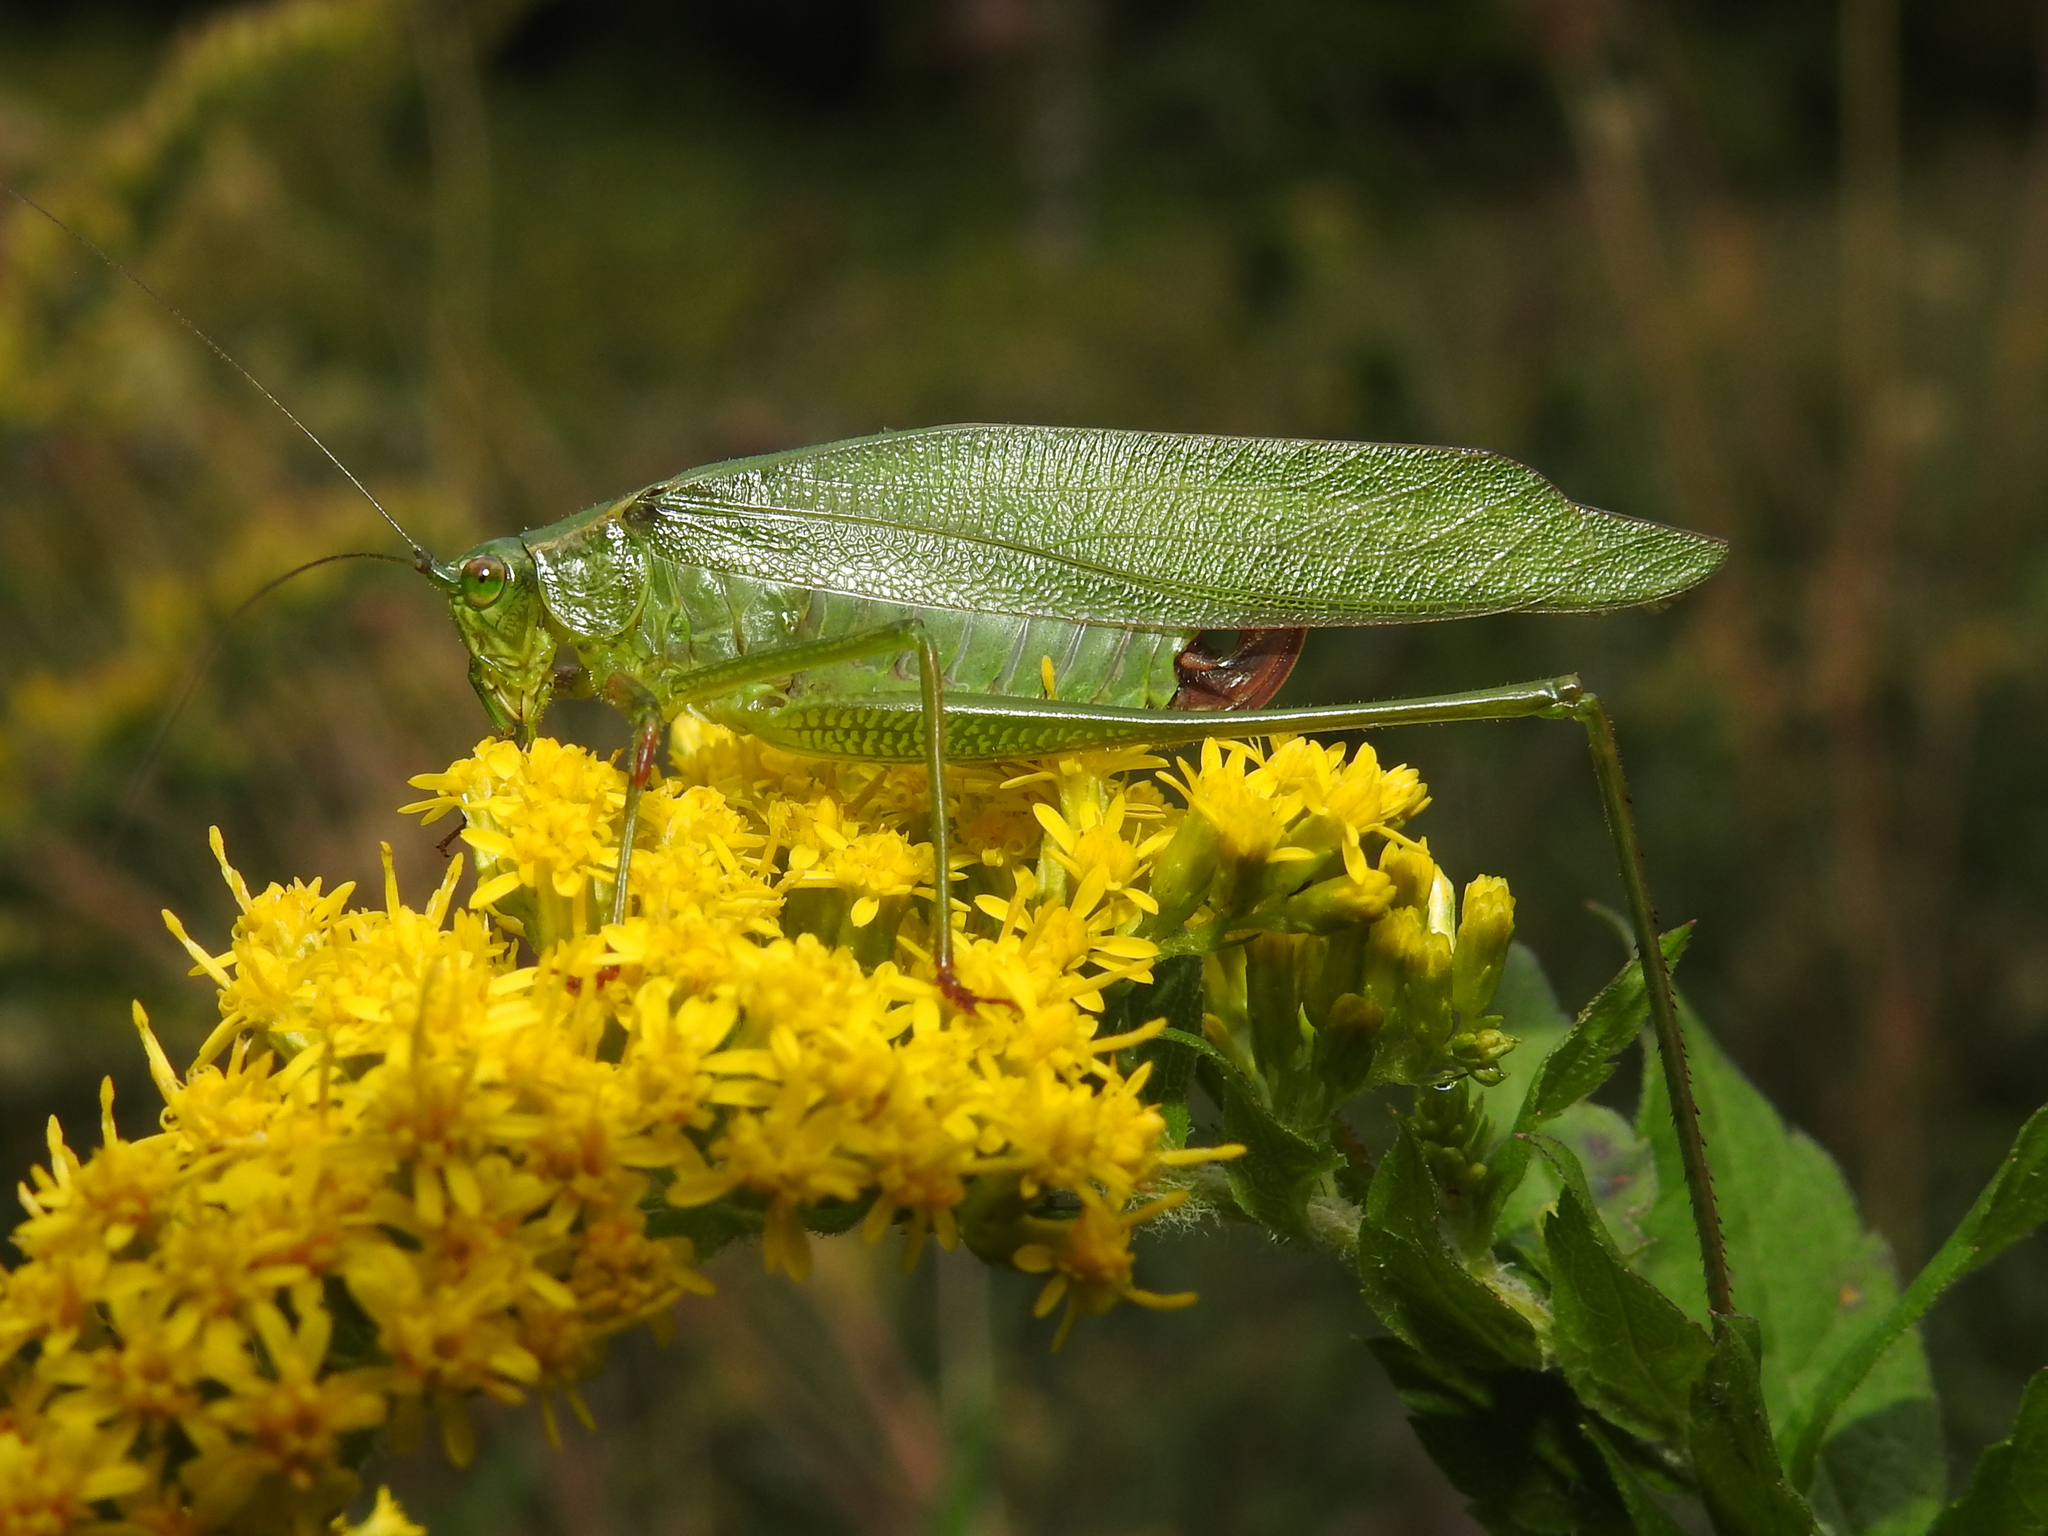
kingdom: Animalia
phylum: Arthropoda
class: Insecta
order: Orthoptera
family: Tettigoniidae
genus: Scudderia
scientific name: Scudderia furcata
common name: Fork-tailed bush katydid
